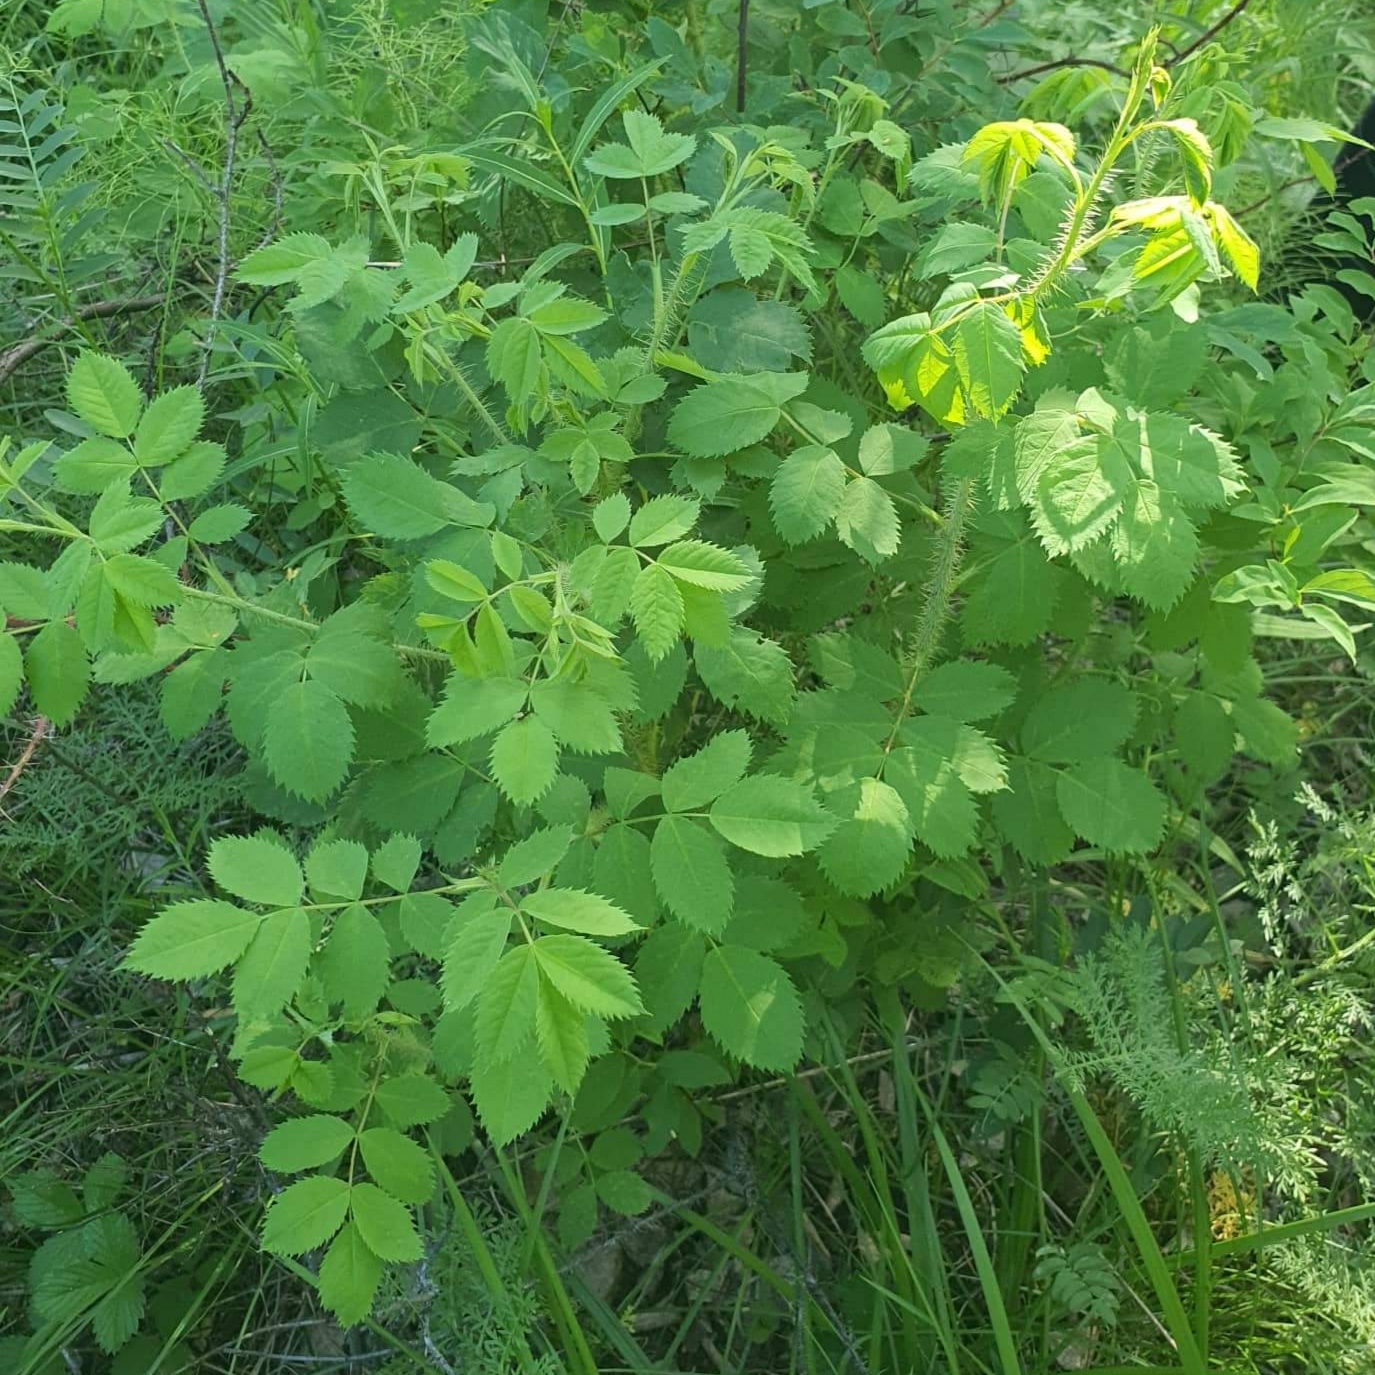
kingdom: Plantae
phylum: Tracheophyta
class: Magnoliopsida
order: Rosales
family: Rosaceae
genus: Rosa
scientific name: Rosa acicularis
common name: Prickly rose
